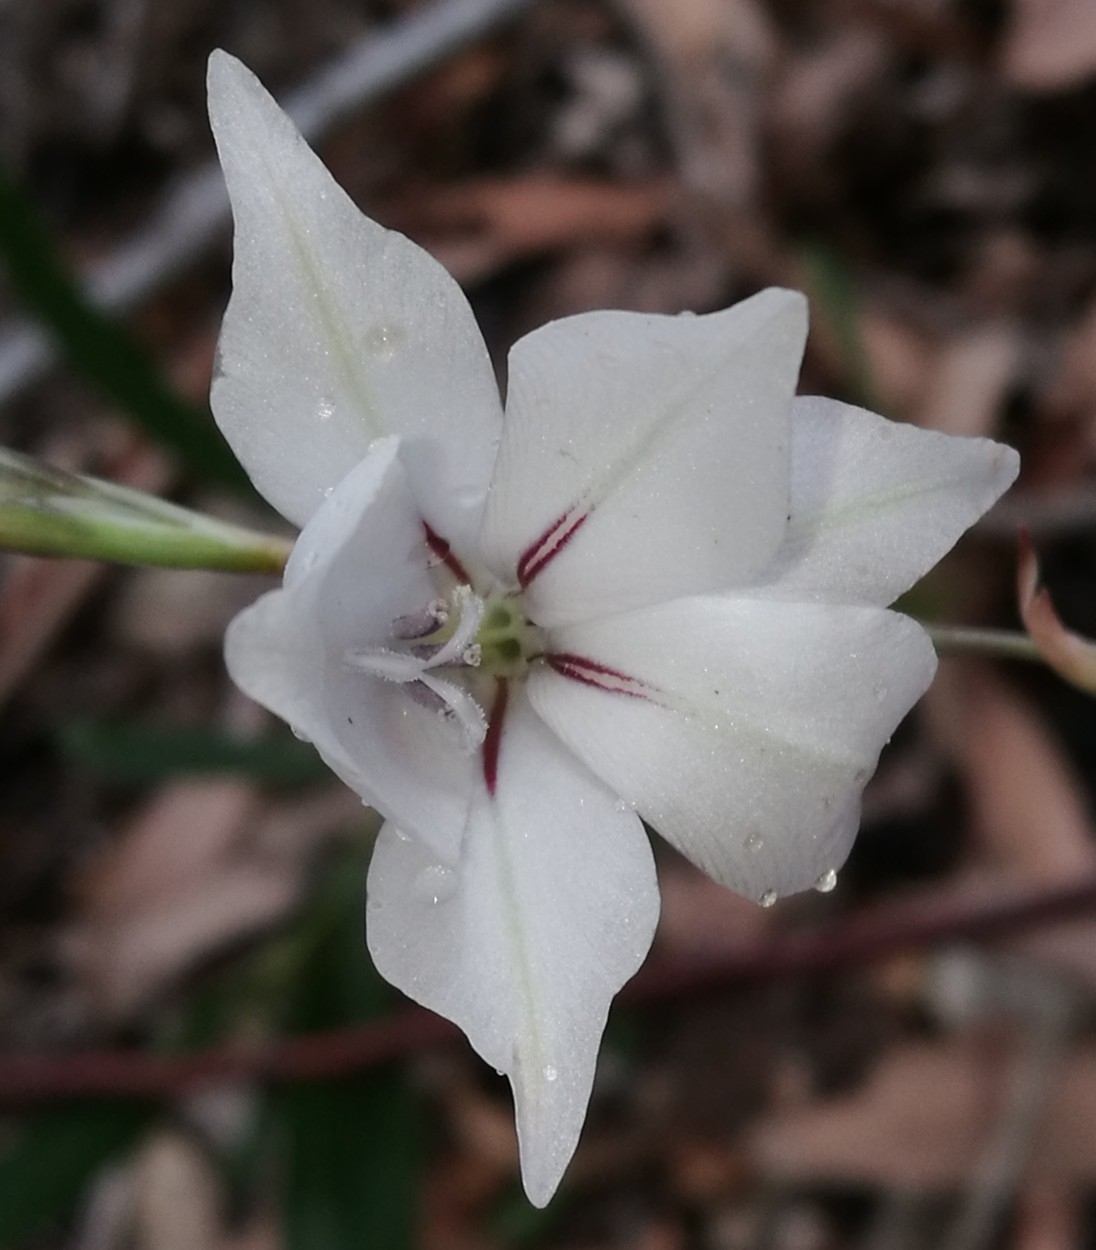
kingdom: Plantae
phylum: Tracheophyta
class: Liliopsida
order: Asparagales
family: Iridaceae
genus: Gladiolus
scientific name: Gladiolus wilsonii
